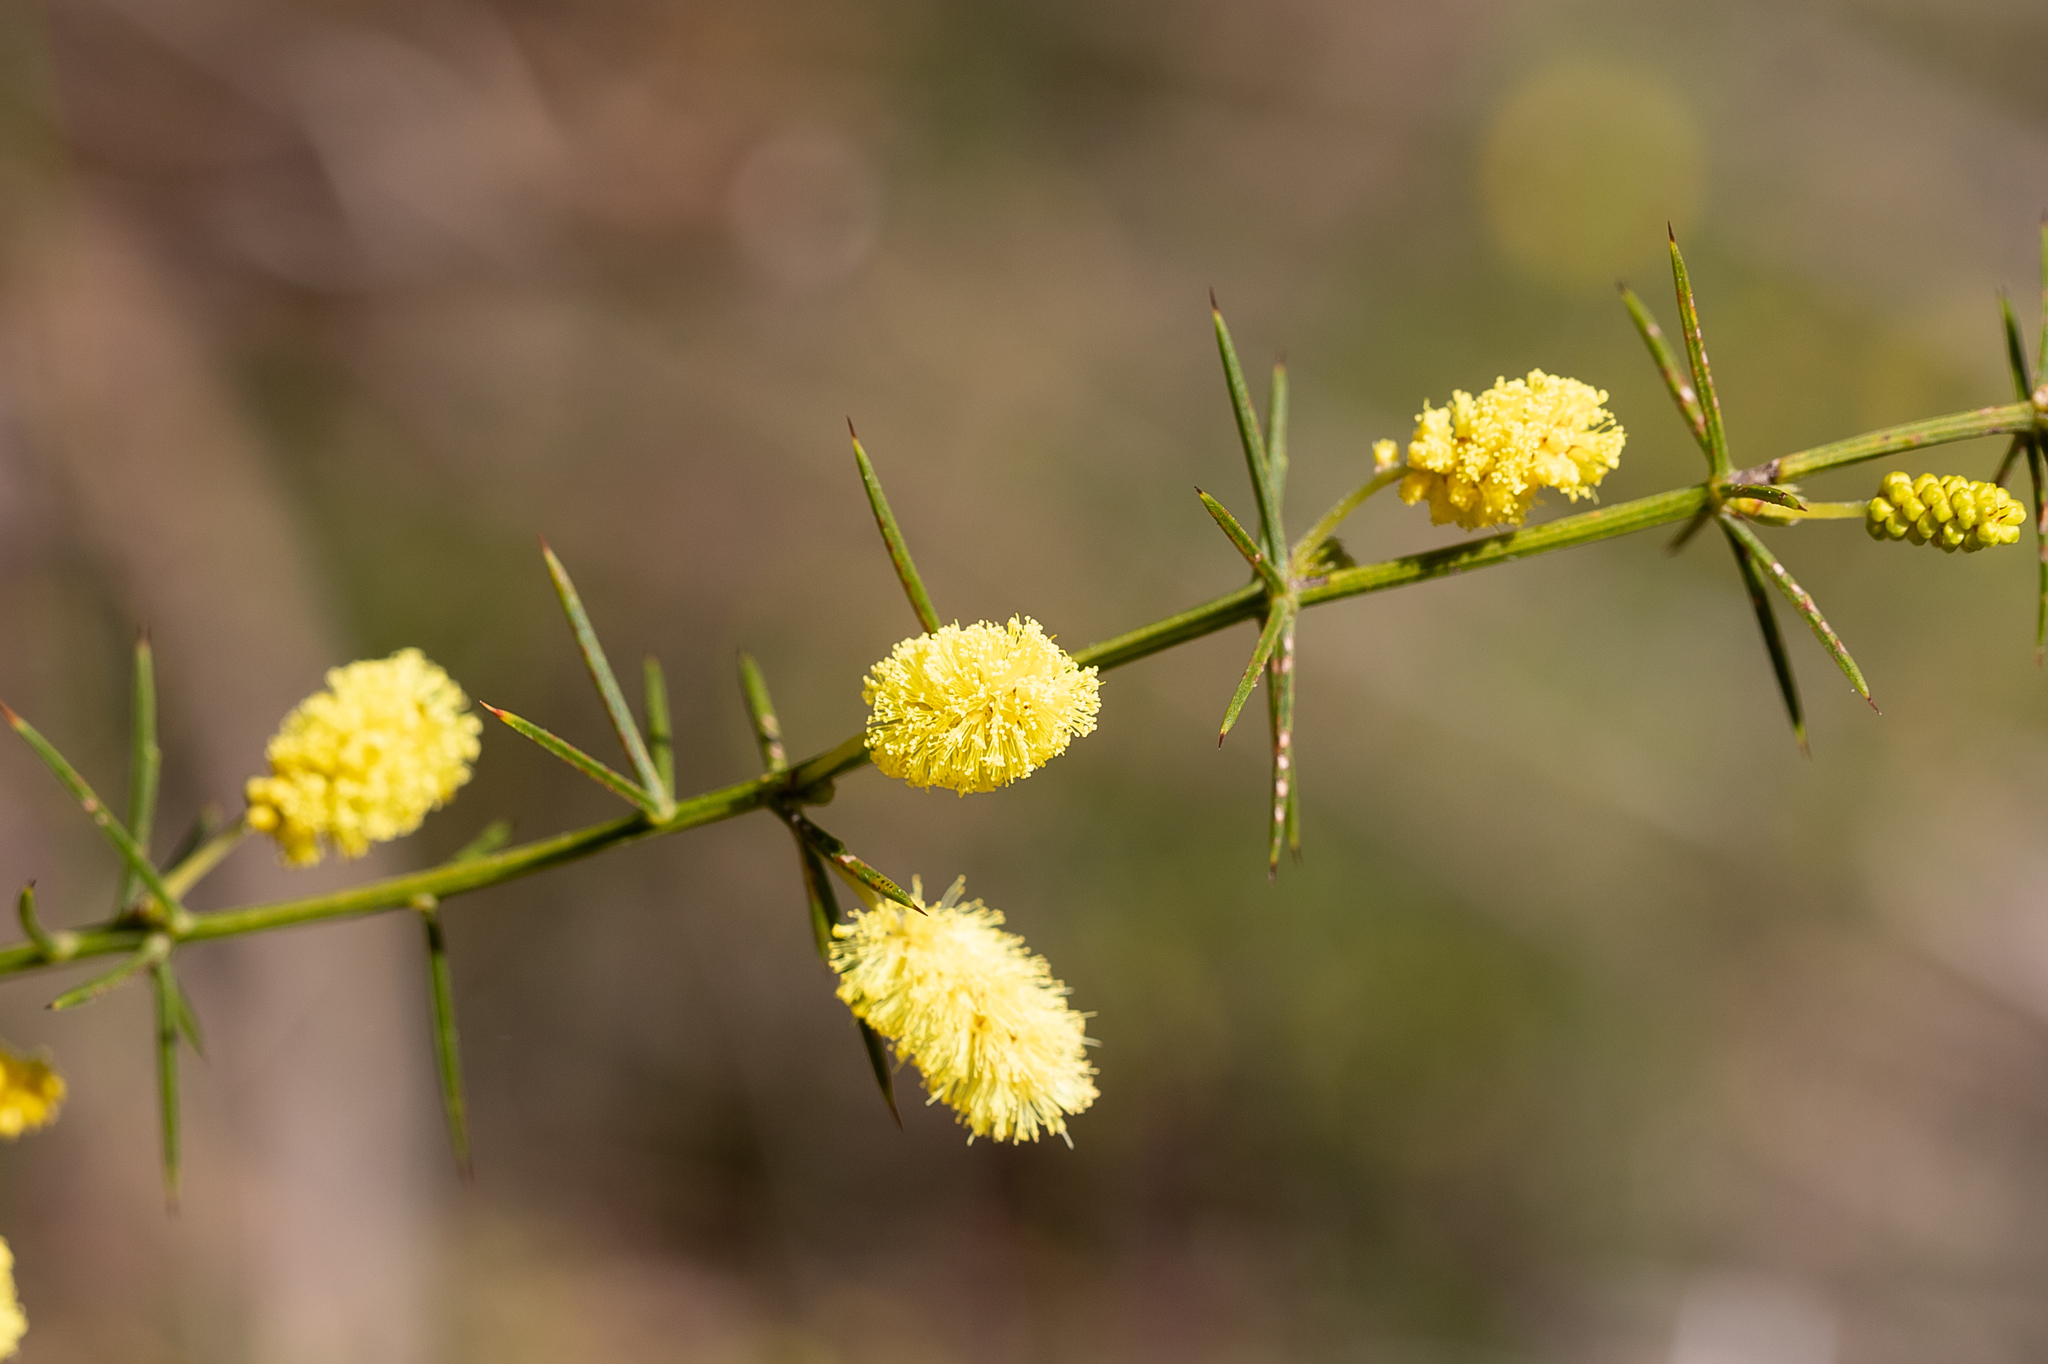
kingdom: Plantae
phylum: Tracheophyta
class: Magnoliopsida
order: Fabales
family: Fabaceae
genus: Acacia
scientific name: Acacia verticillata
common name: Prickly moses
